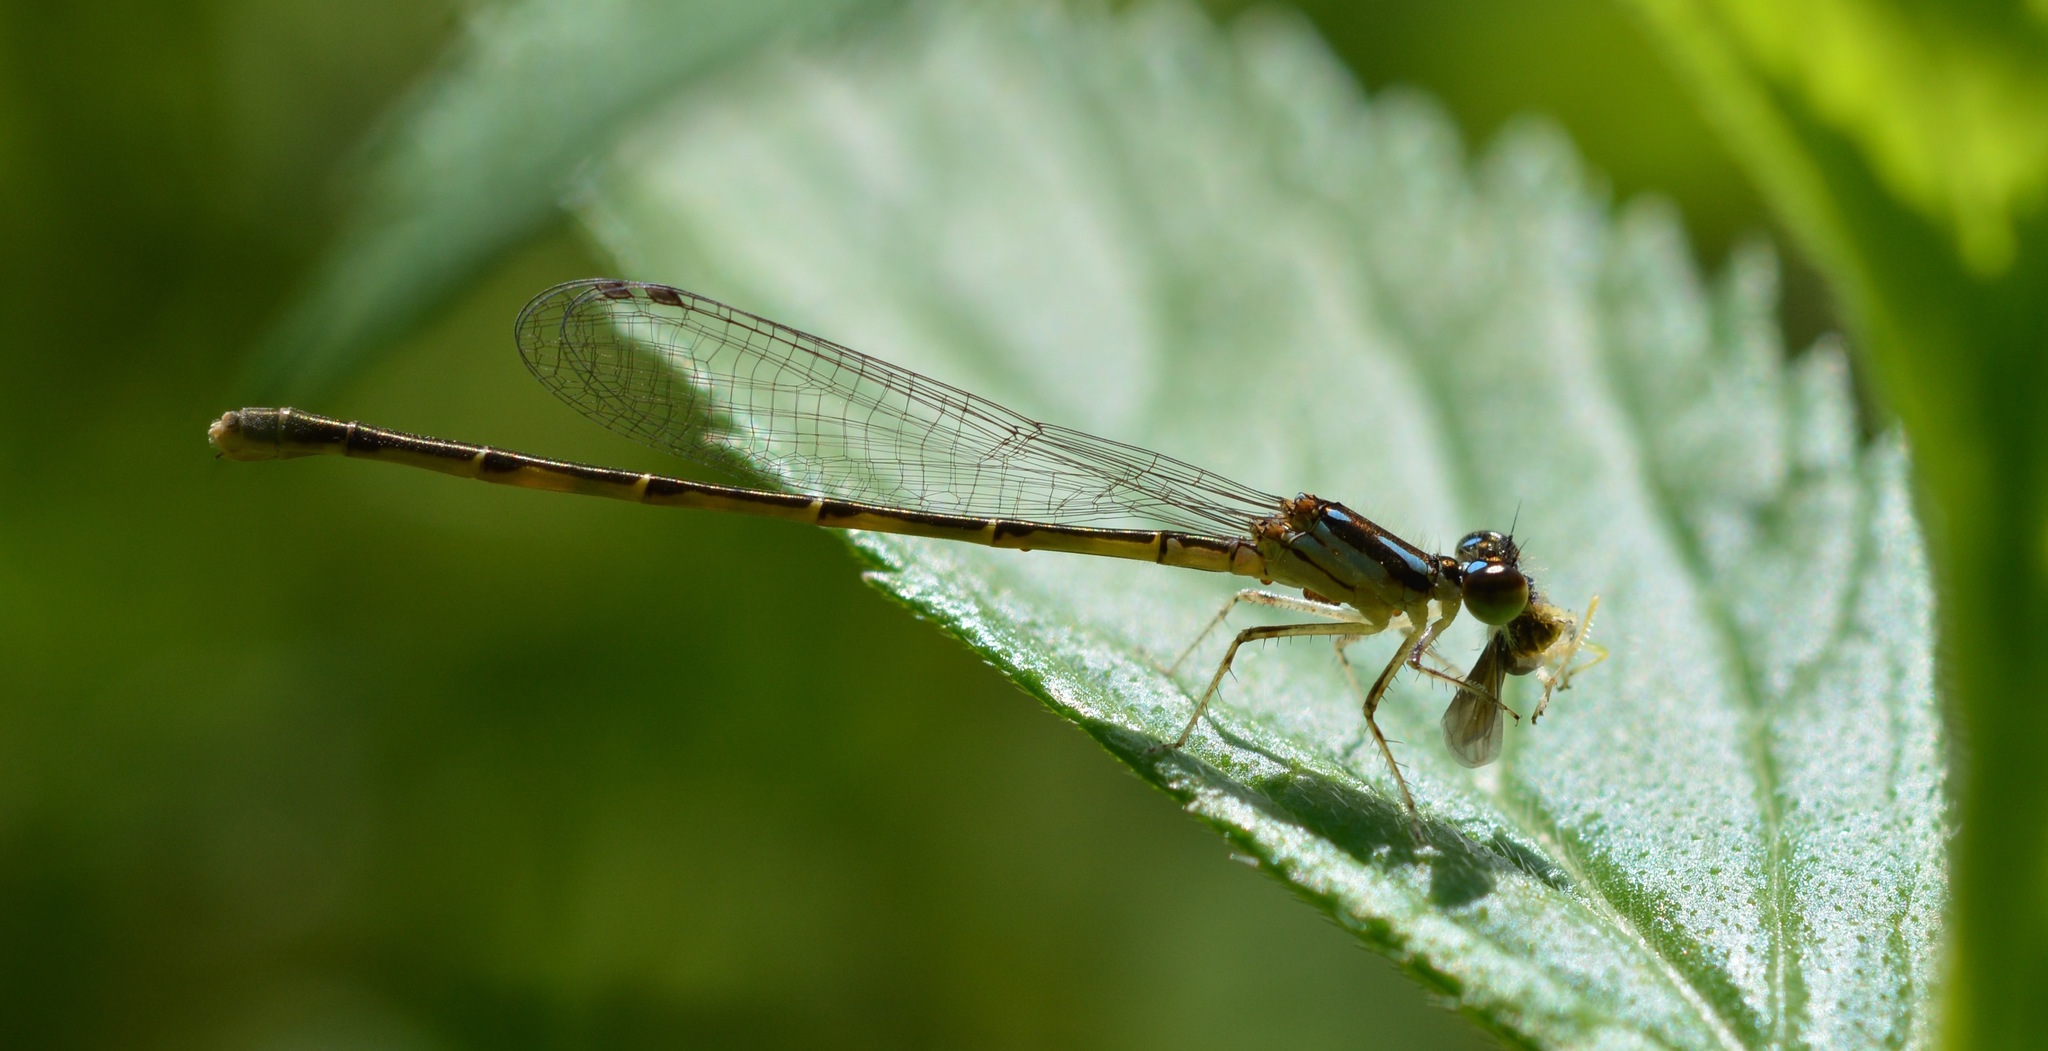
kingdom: Animalia
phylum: Arthropoda
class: Insecta
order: Odonata
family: Coenagrionidae
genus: Ischnura
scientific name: Ischnura posita
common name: Fragile forktail
